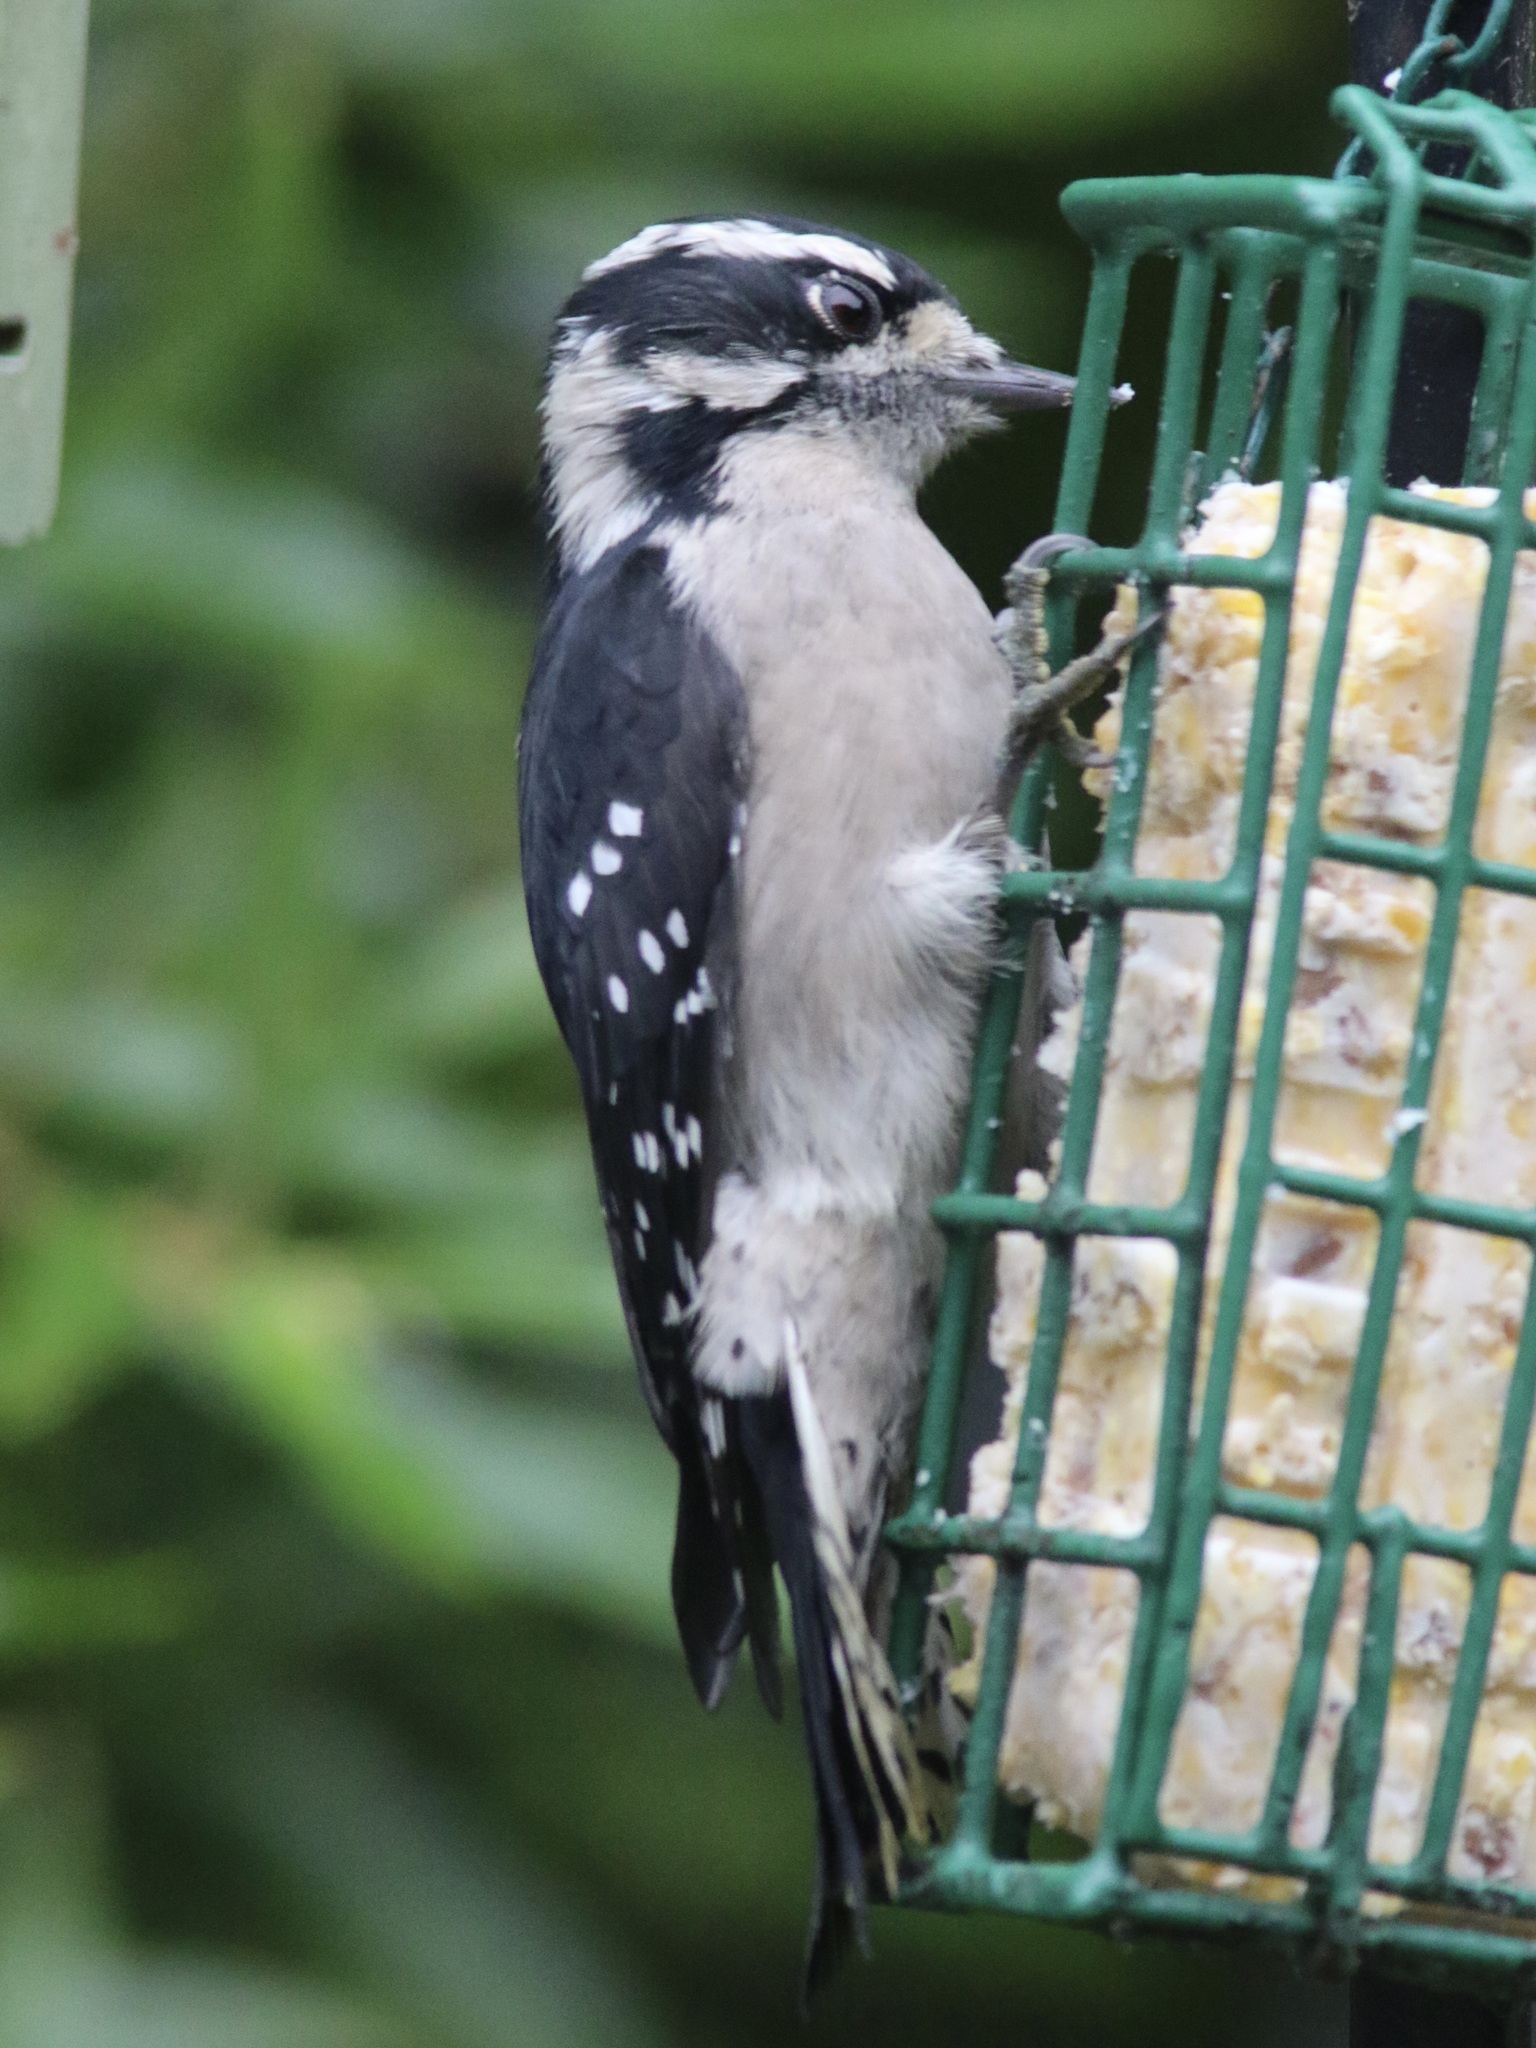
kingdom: Animalia
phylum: Chordata
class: Aves
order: Piciformes
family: Picidae
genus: Dryobates
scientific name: Dryobates pubescens
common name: Downy woodpecker
